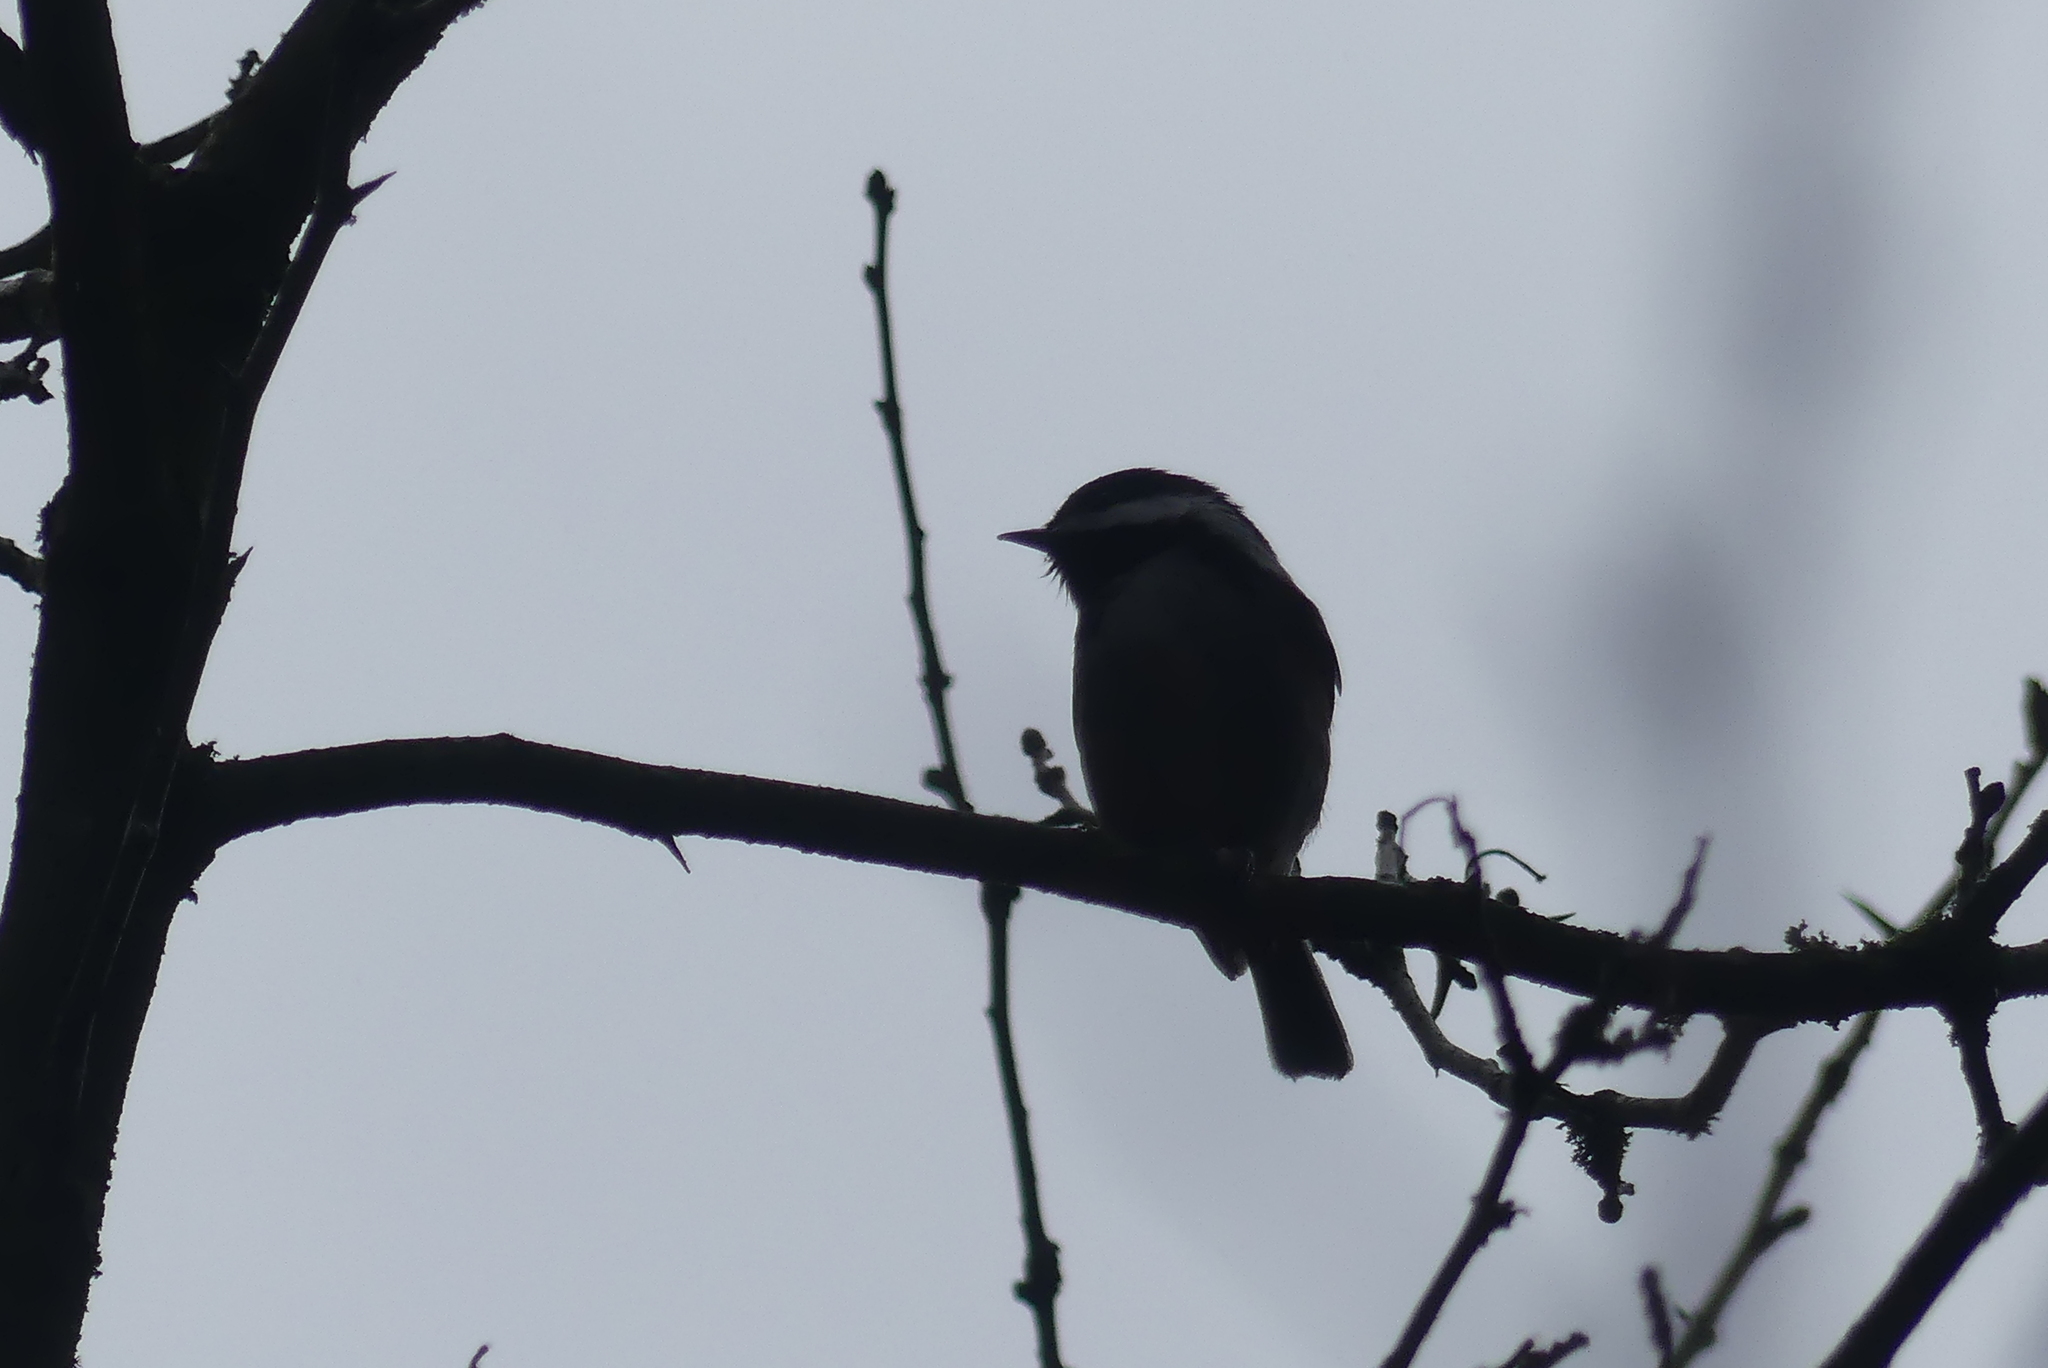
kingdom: Animalia
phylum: Chordata
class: Aves
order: Passeriformes
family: Paridae
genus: Poecile
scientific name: Poecile rufescens
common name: Chestnut-backed chickadee
